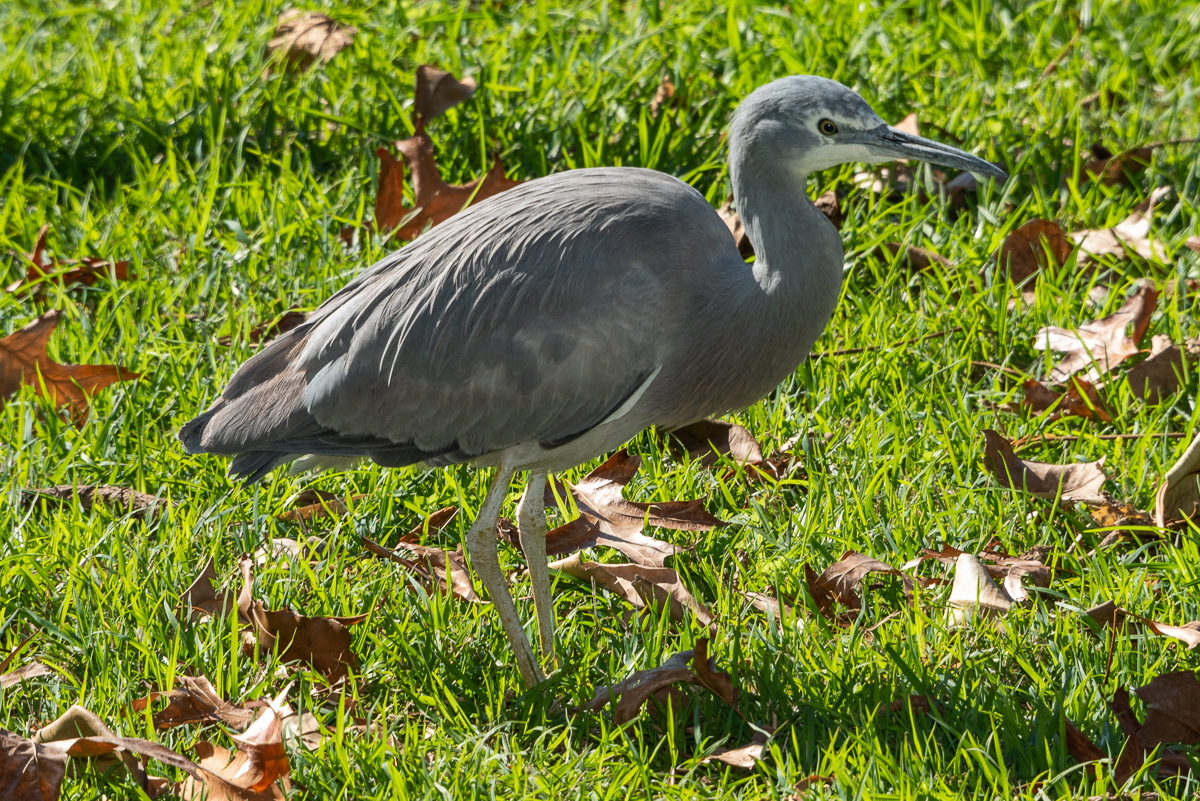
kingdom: Animalia
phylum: Chordata
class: Aves
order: Pelecaniformes
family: Ardeidae
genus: Egretta
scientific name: Egretta novaehollandiae
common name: White-faced heron
